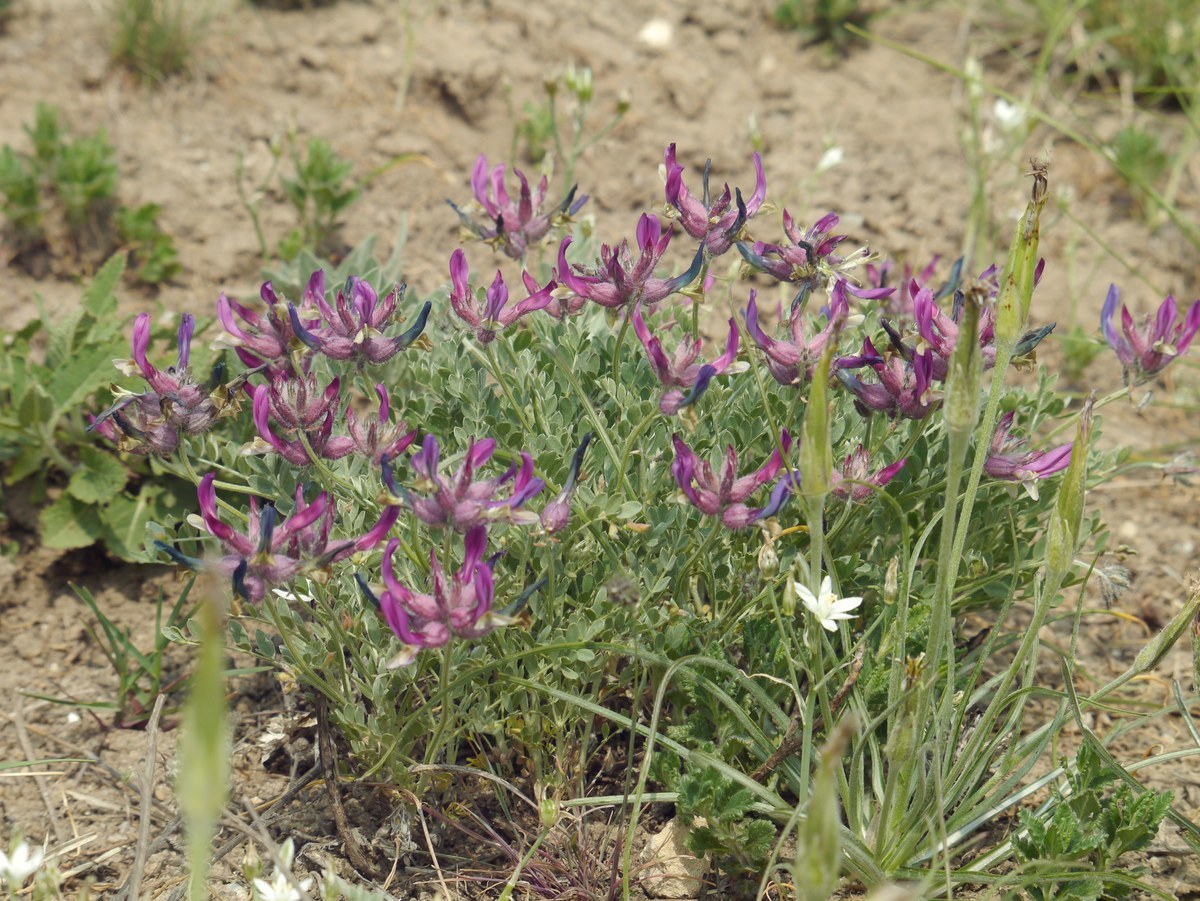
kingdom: Plantae
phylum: Tracheophyta
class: Magnoliopsida
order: Fabales
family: Fabaceae
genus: Astragalus
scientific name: Astragalus vesicarius
